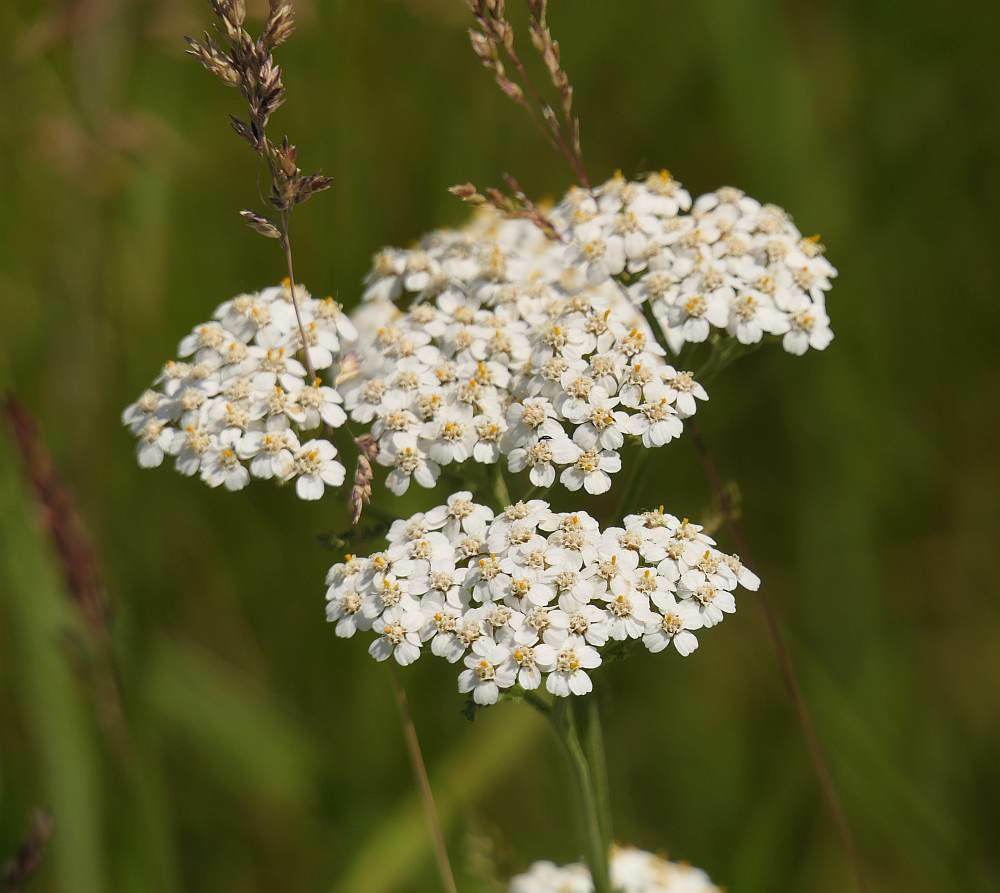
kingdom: Plantae
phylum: Tracheophyta
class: Magnoliopsida
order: Asterales
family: Asteraceae
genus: Achillea
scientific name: Achillea millefolium
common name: Yarrow
